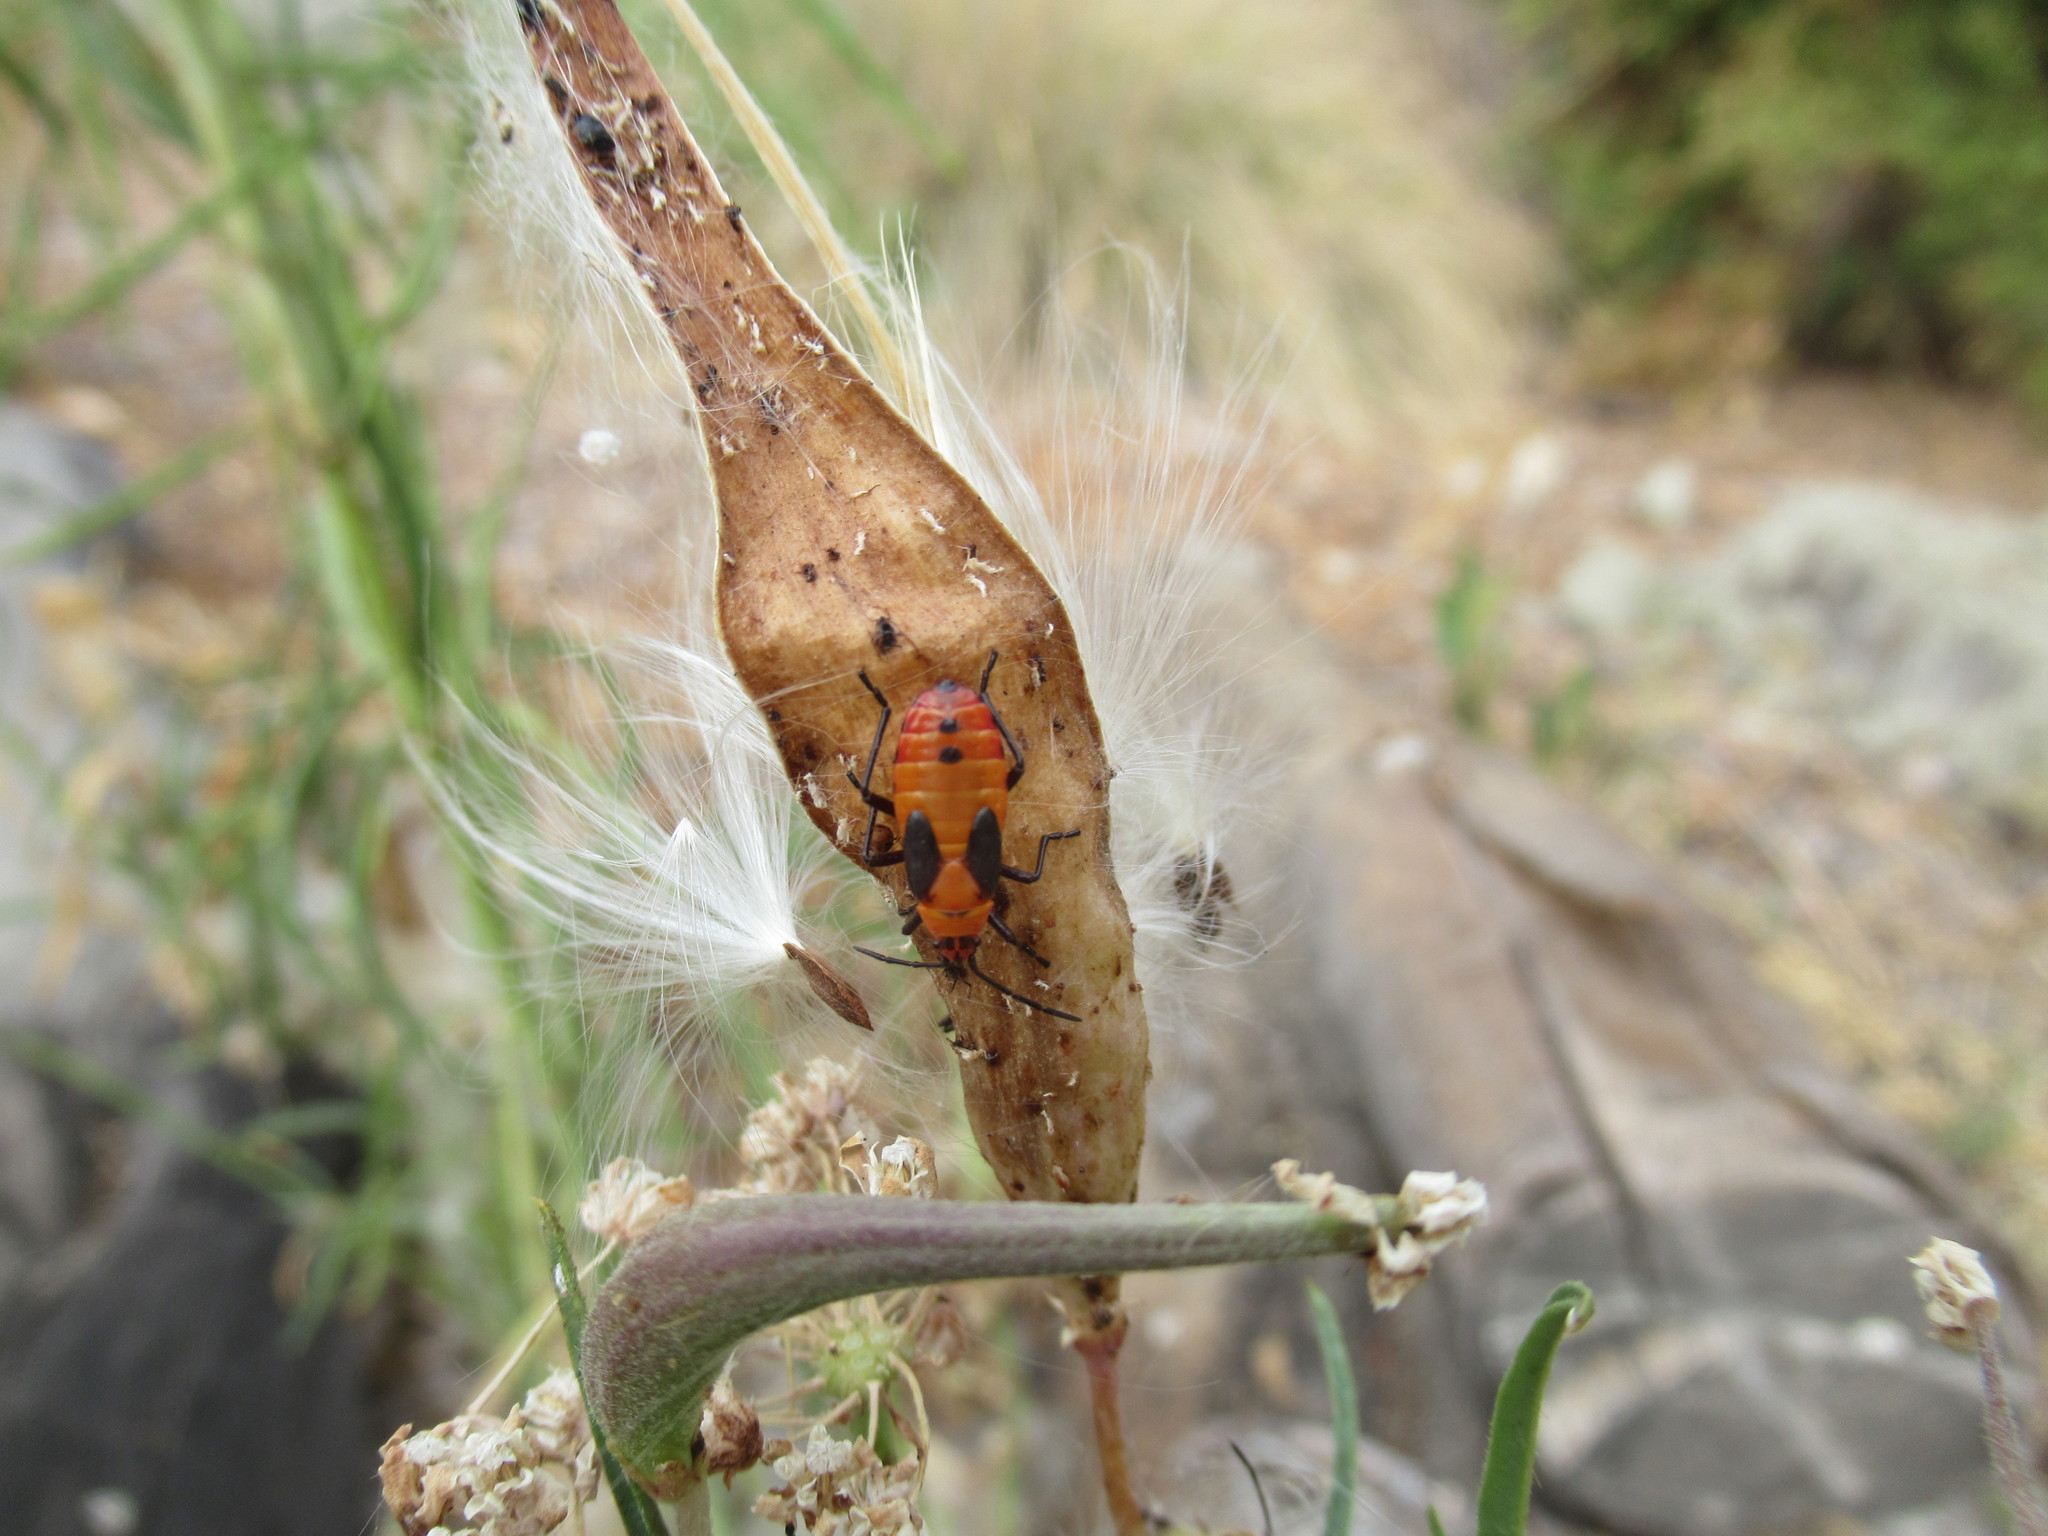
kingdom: Animalia
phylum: Arthropoda
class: Insecta
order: Hemiptera
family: Lygaeidae
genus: Oncopeltus
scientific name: Oncopeltus fasciatus
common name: Large milkweed bug
